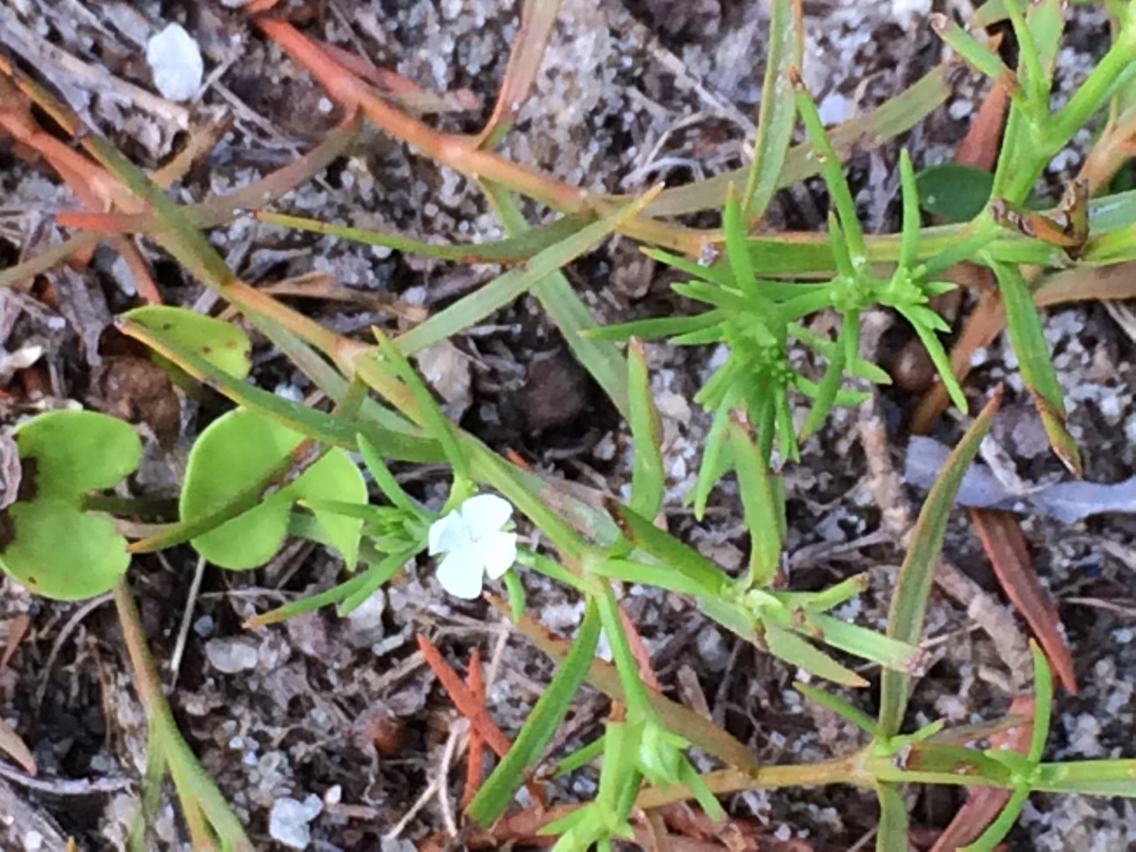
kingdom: Plantae
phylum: Tracheophyta
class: Magnoliopsida
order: Lamiales
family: Tetrachondraceae
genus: Polypremum
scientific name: Polypremum procumbens
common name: Juniper-leaf
